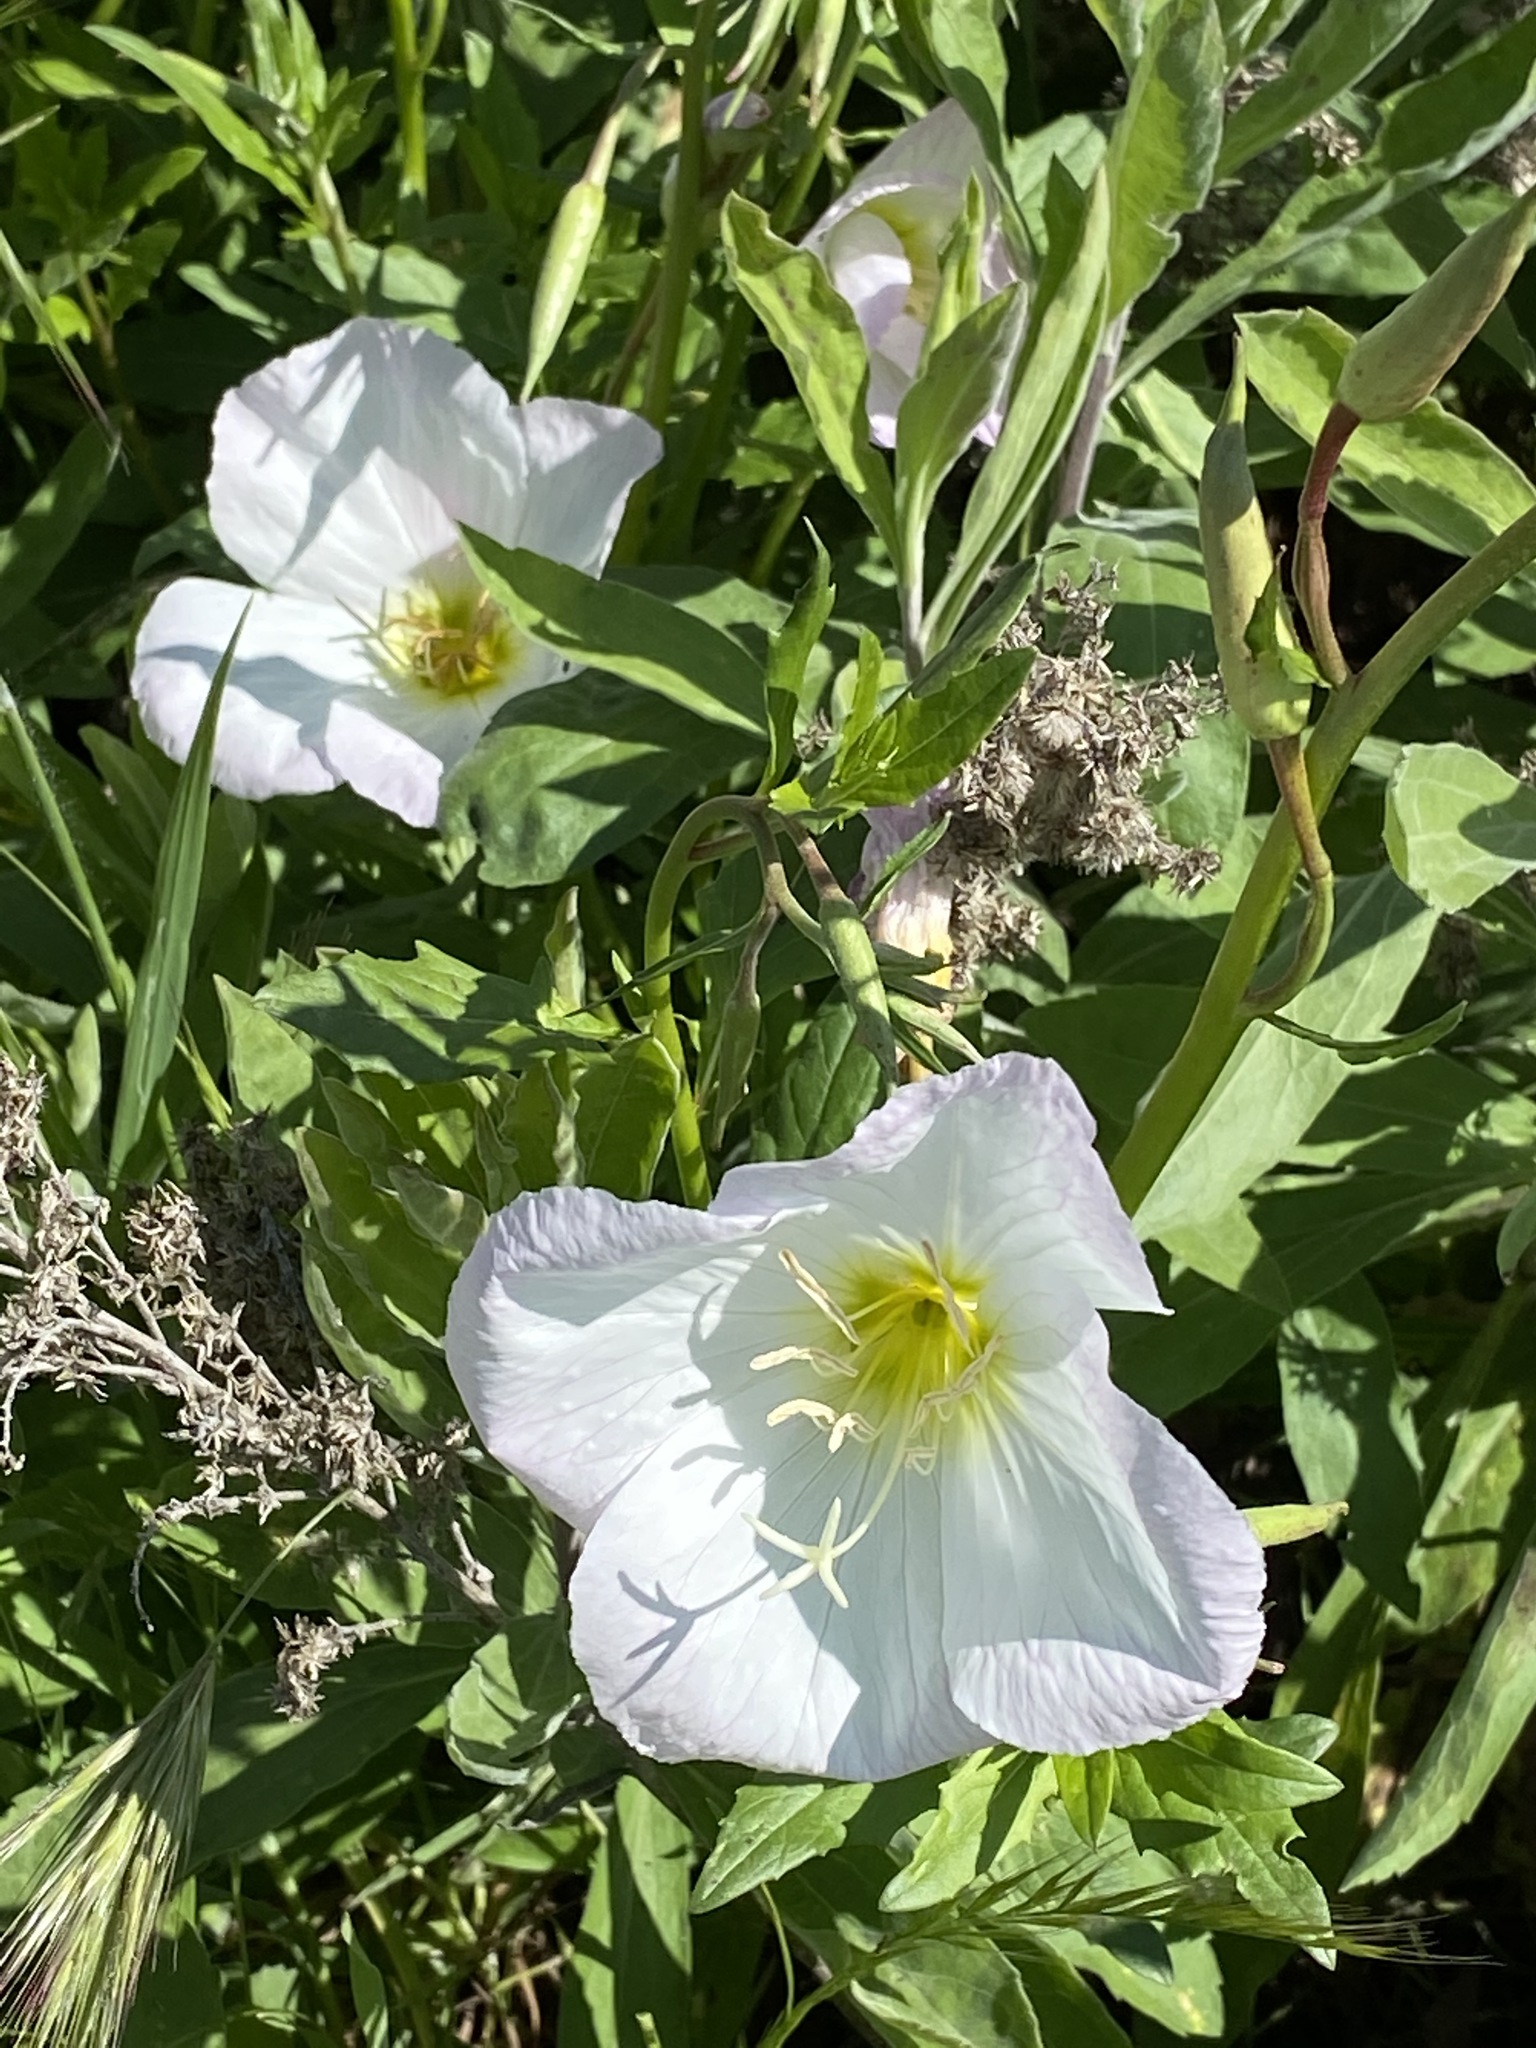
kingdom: Plantae
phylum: Tracheophyta
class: Magnoliopsida
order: Myrtales
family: Onagraceae
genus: Oenothera
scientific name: Oenothera speciosa
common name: White evening-primrose
